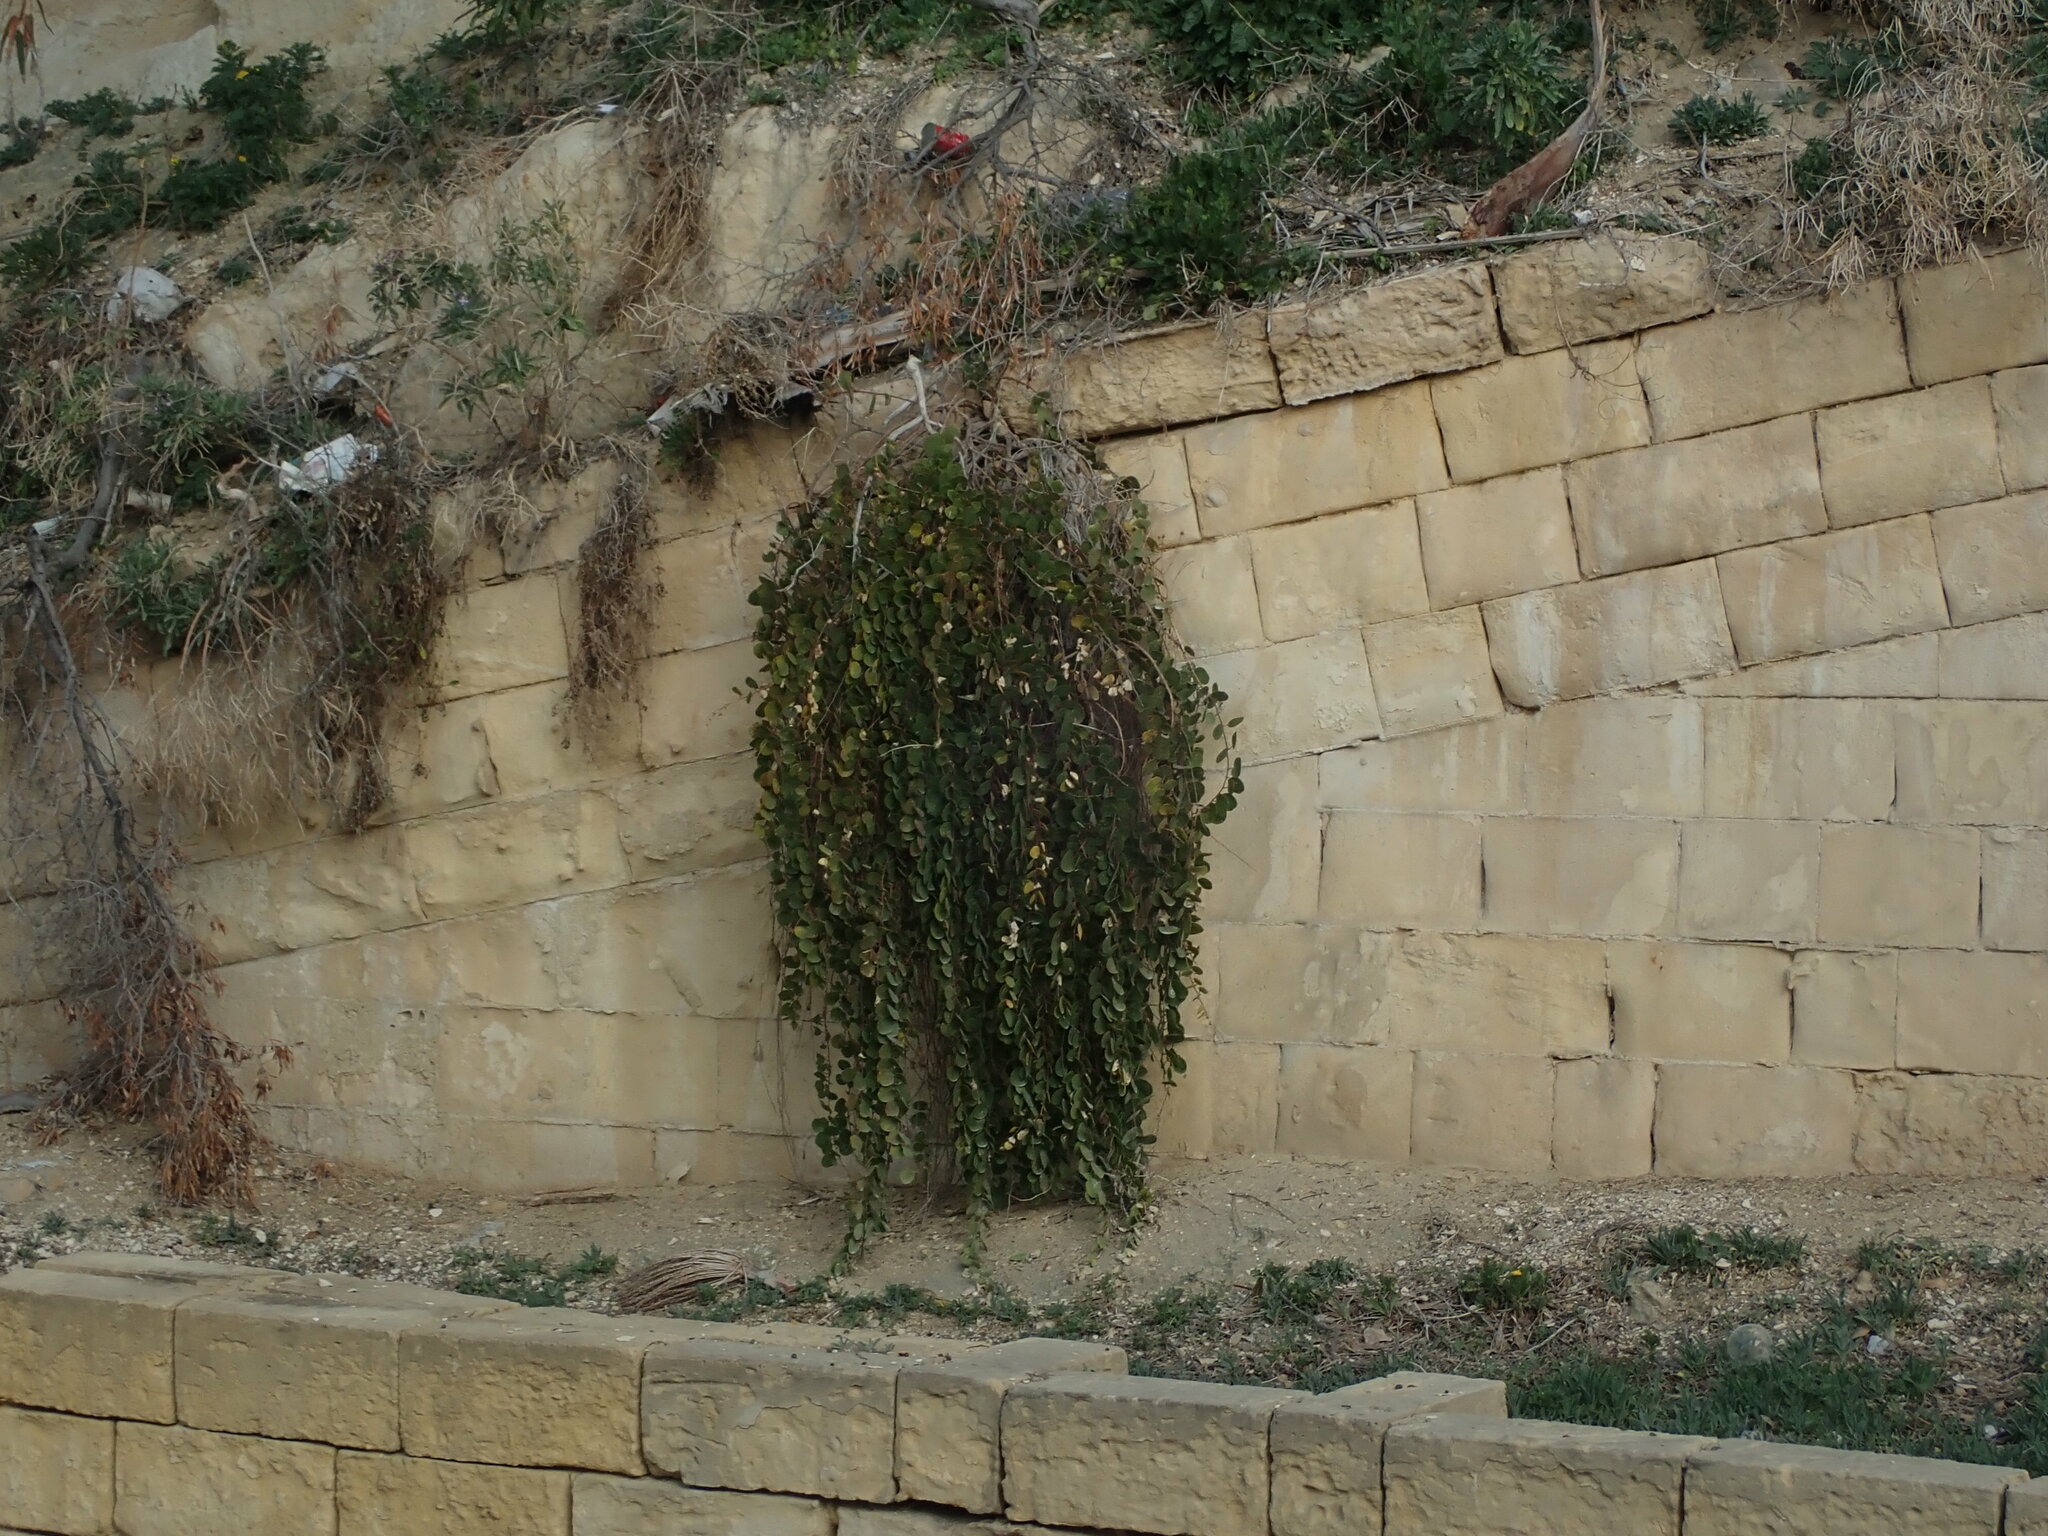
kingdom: Plantae
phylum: Tracheophyta
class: Magnoliopsida
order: Brassicales
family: Capparaceae
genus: Capparis
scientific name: Capparis orientalis
